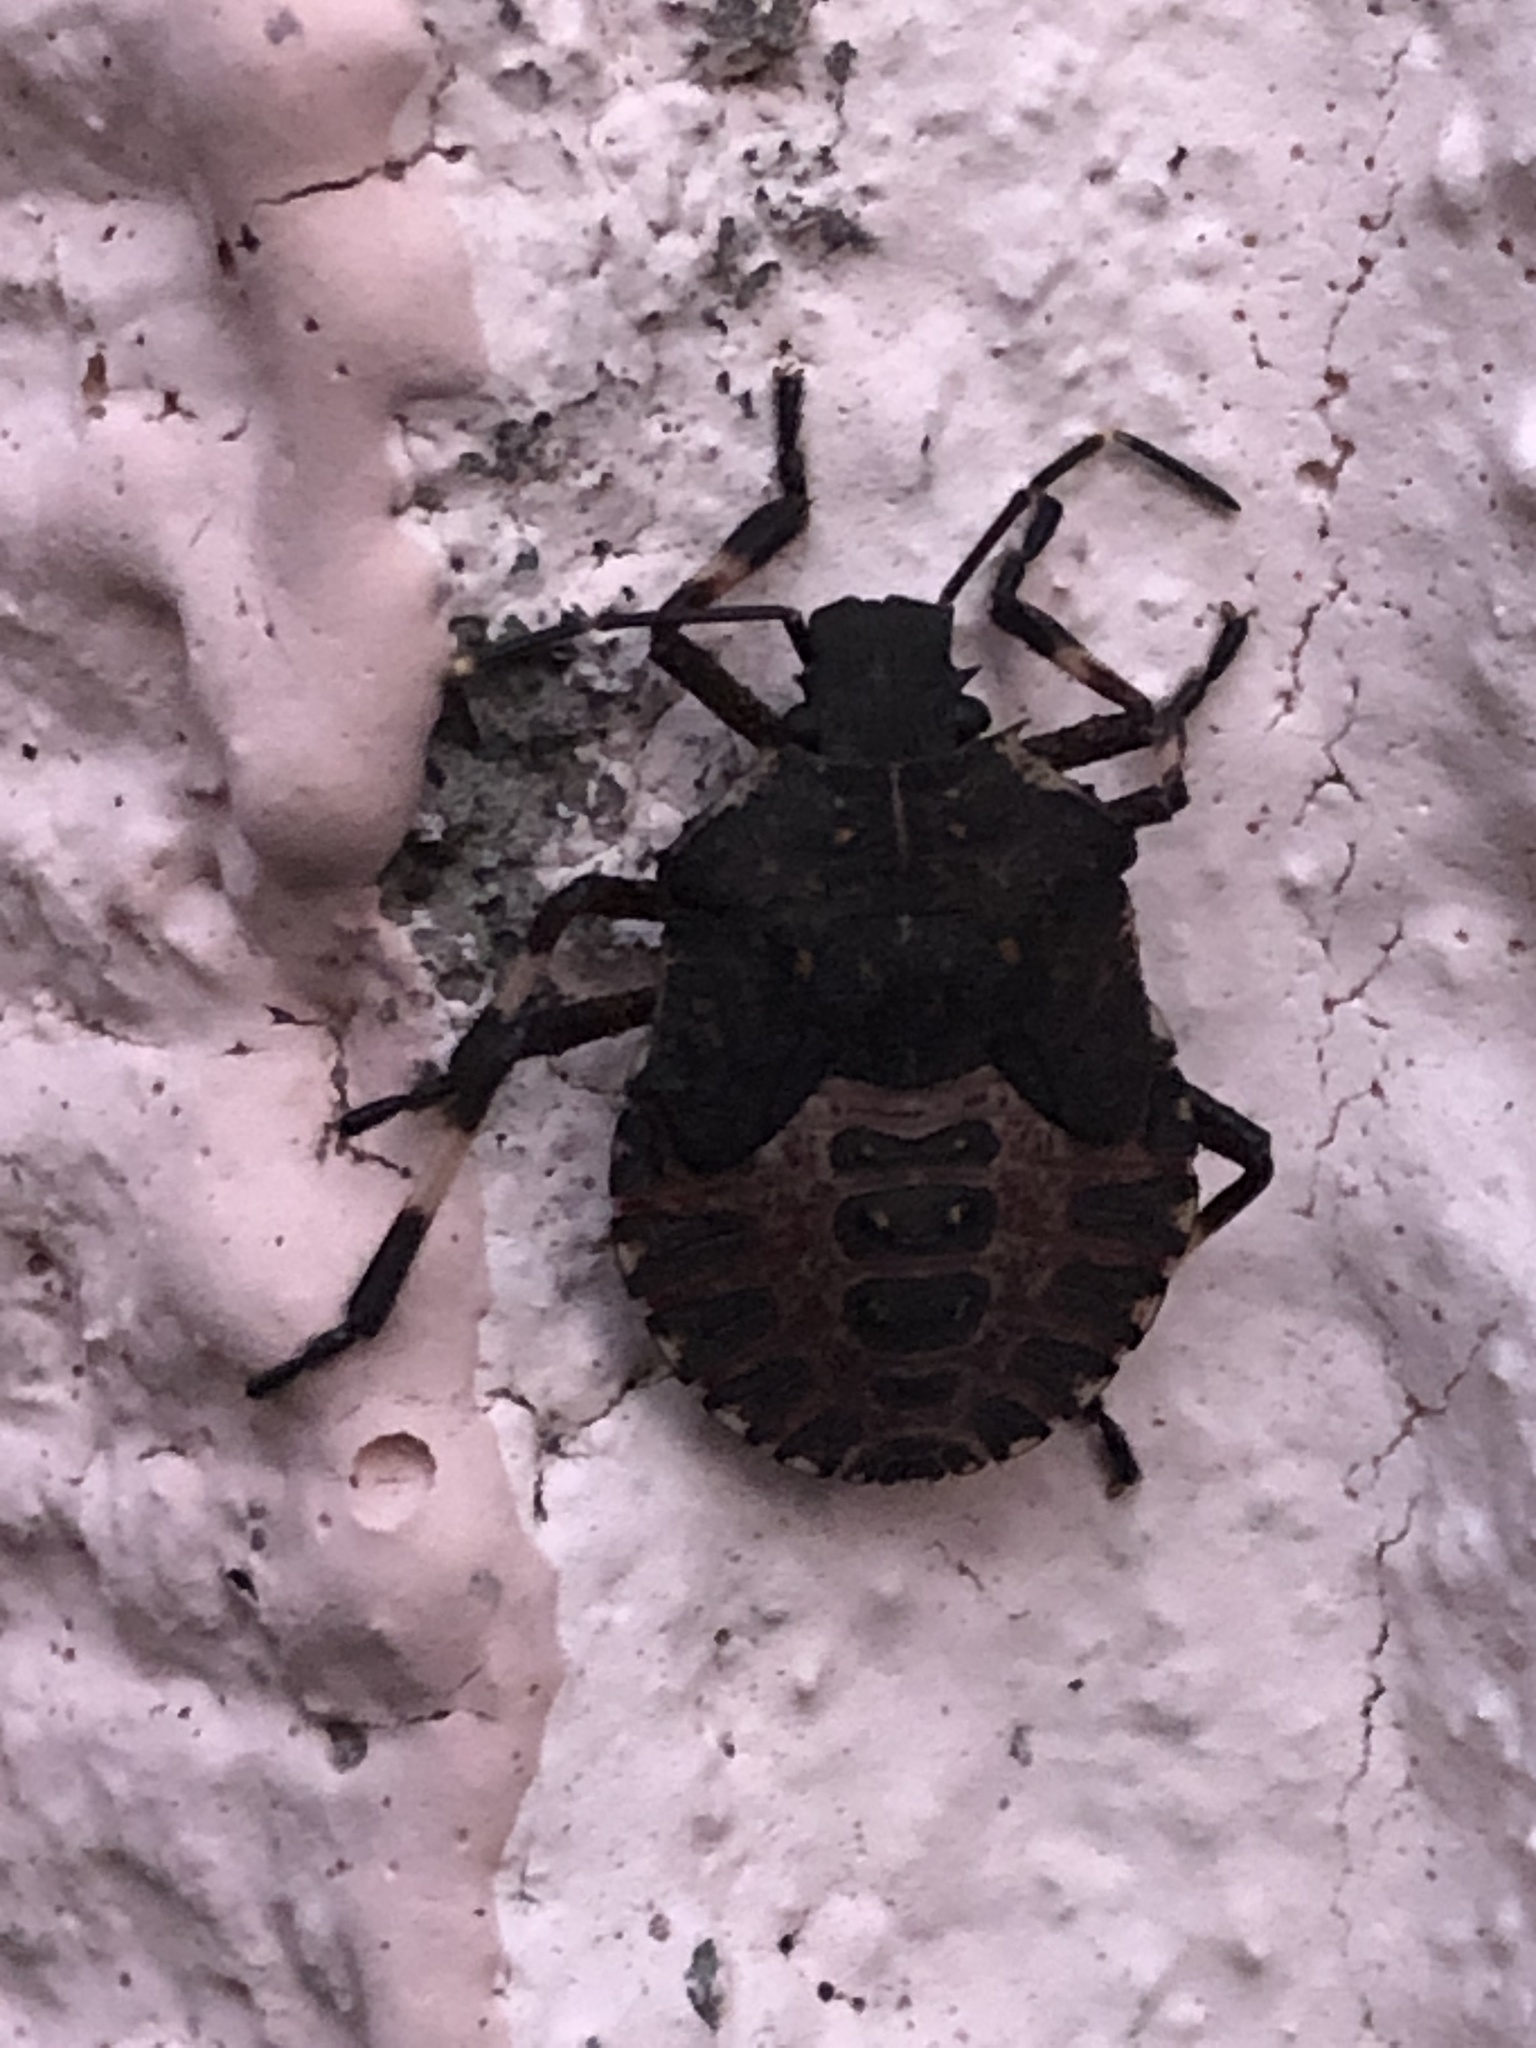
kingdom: Animalia
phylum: Arthropoda
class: Insecta
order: Hemiptera
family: Pentatomidae
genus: Halyomorpha
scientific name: Halyomorpha halys
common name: Brown marmorated stink bug
